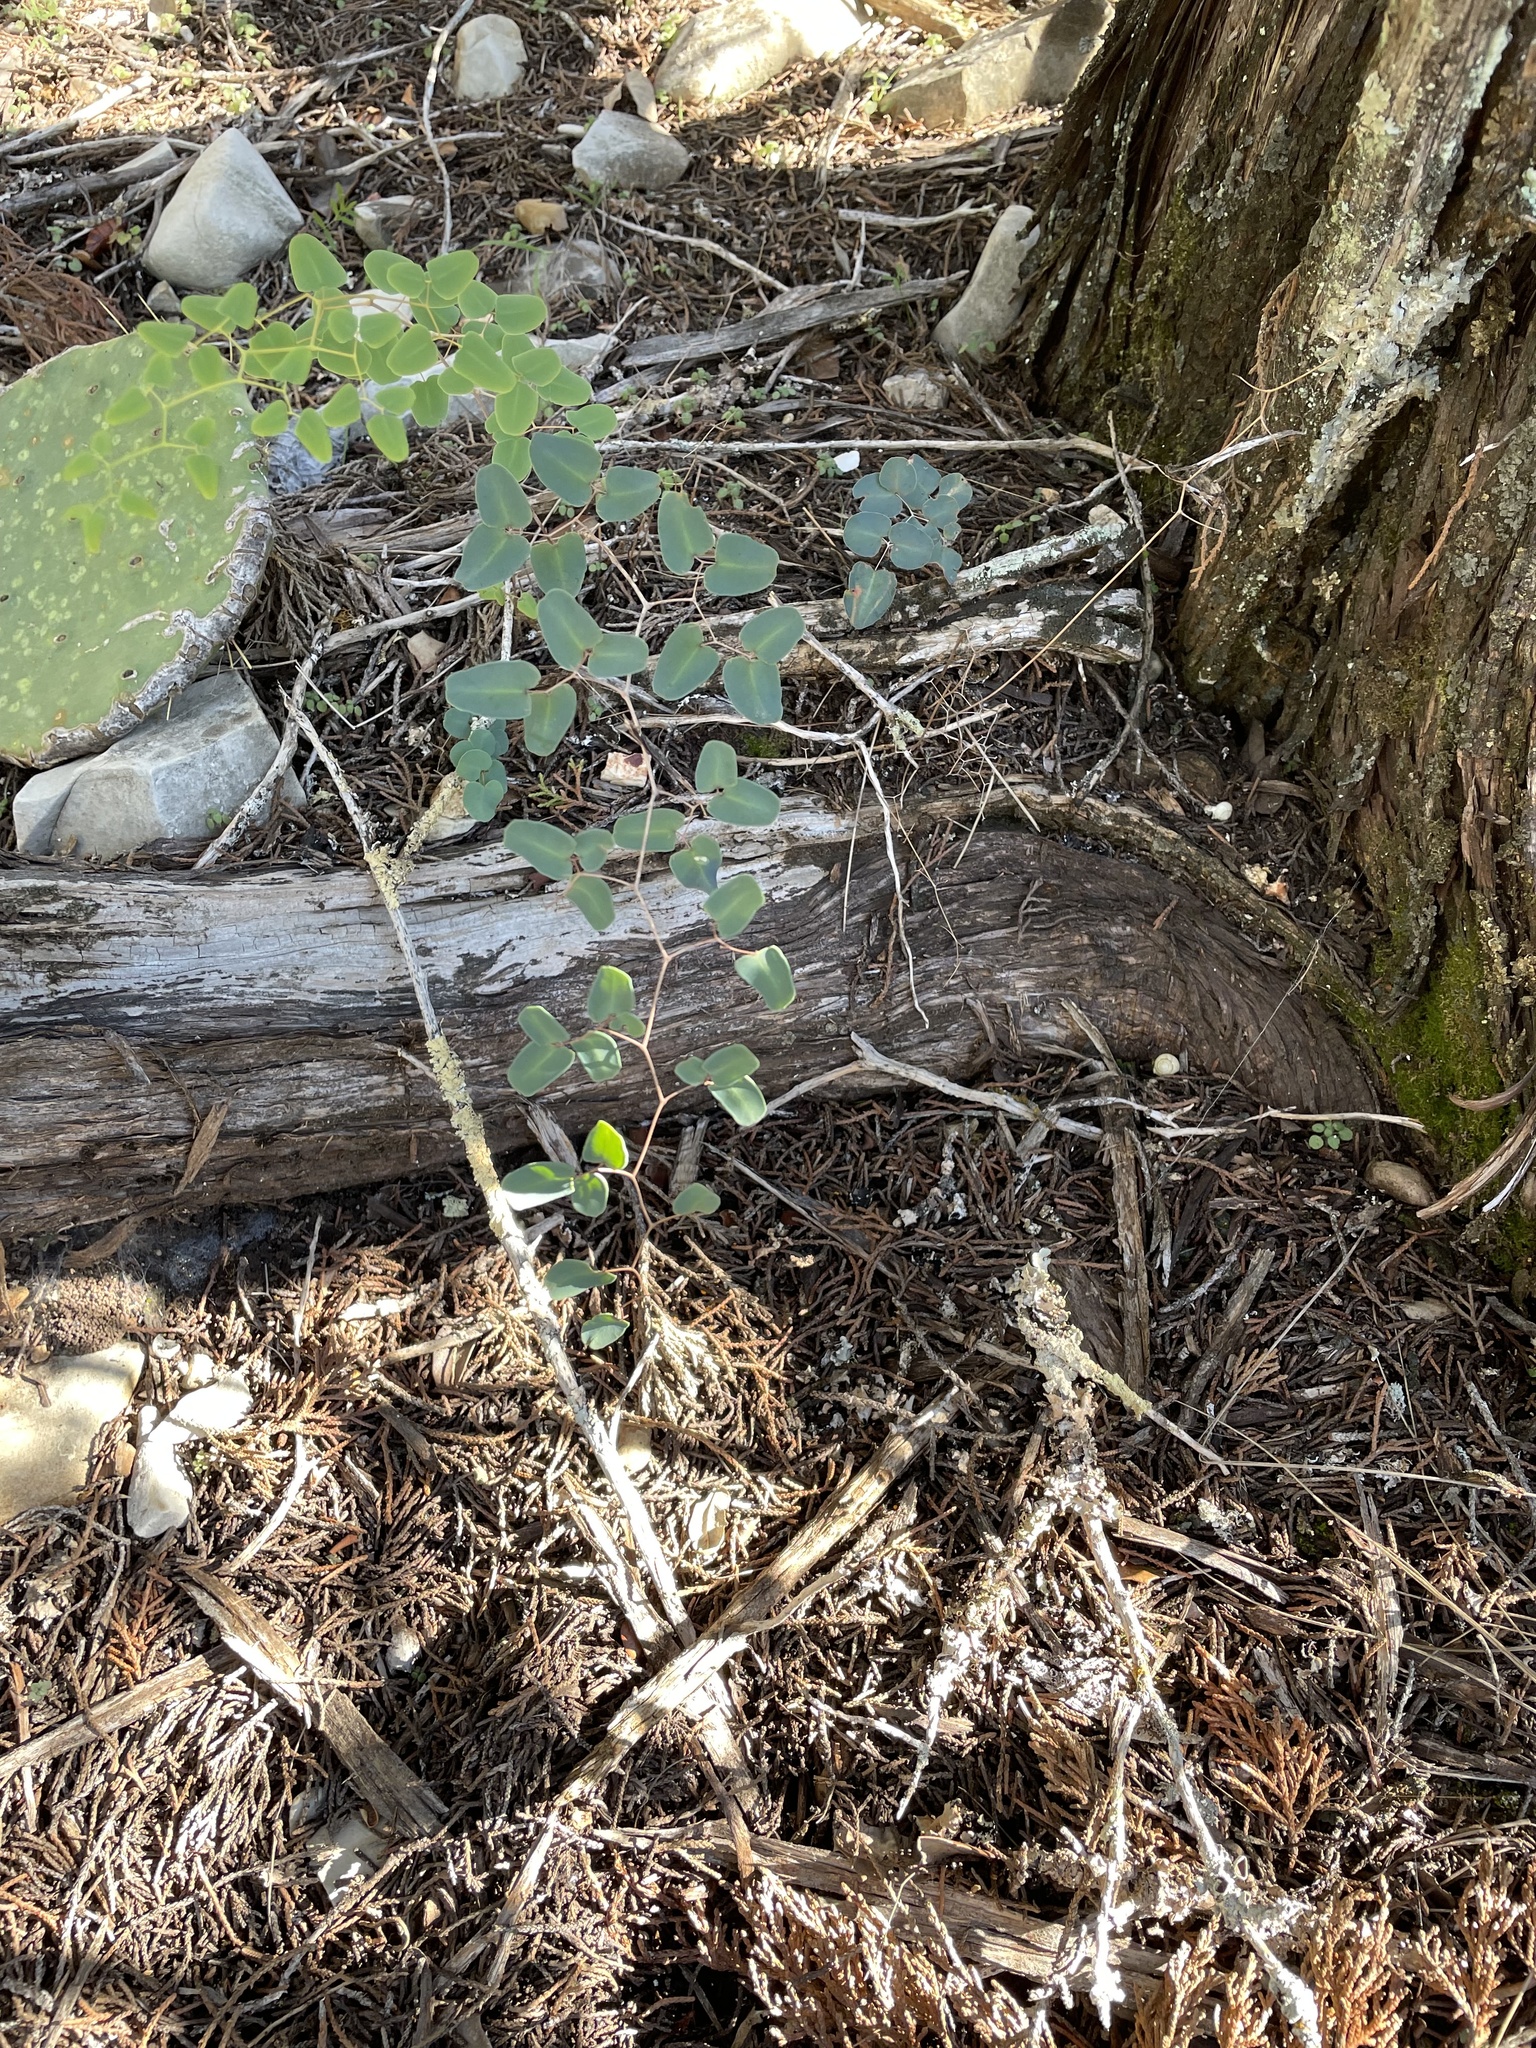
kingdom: Plantae
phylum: Tracheophyta
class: Polypodiopsida
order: Polypodiales
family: Pteridaceae
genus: Pellaea
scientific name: Pellaea ovata
